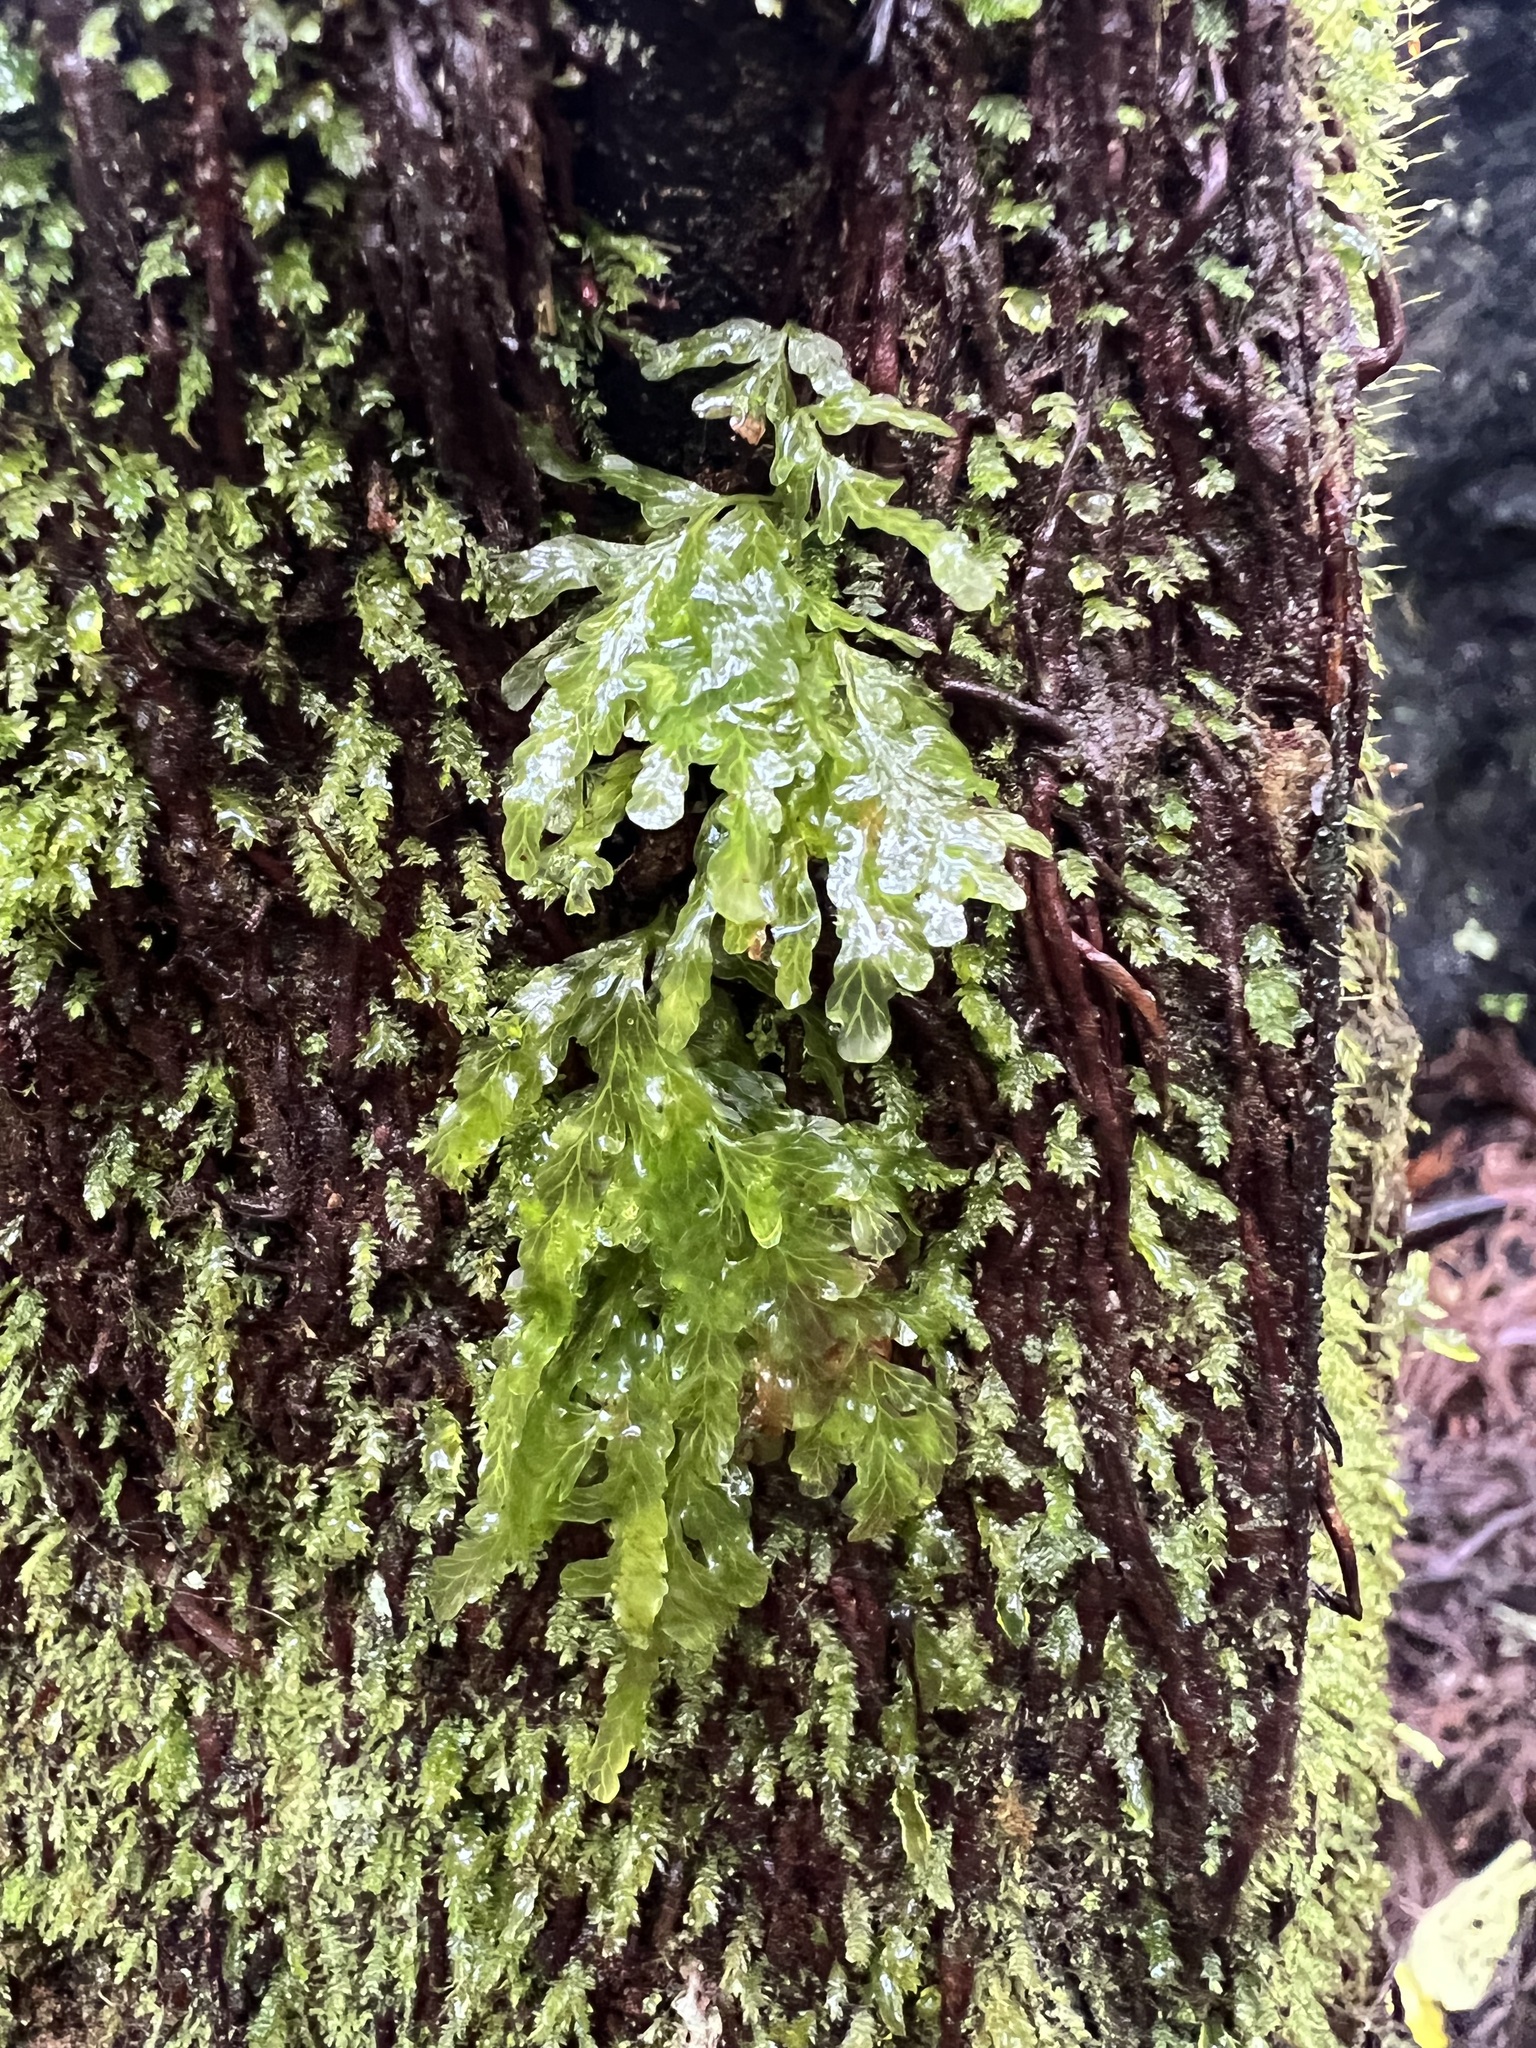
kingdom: Plantae
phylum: Tracheophyta
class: Polypodiopsida
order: Hymenophyllales
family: Hymenophyllaceae
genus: Polyphlebium
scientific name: Polyphlebium venosum
